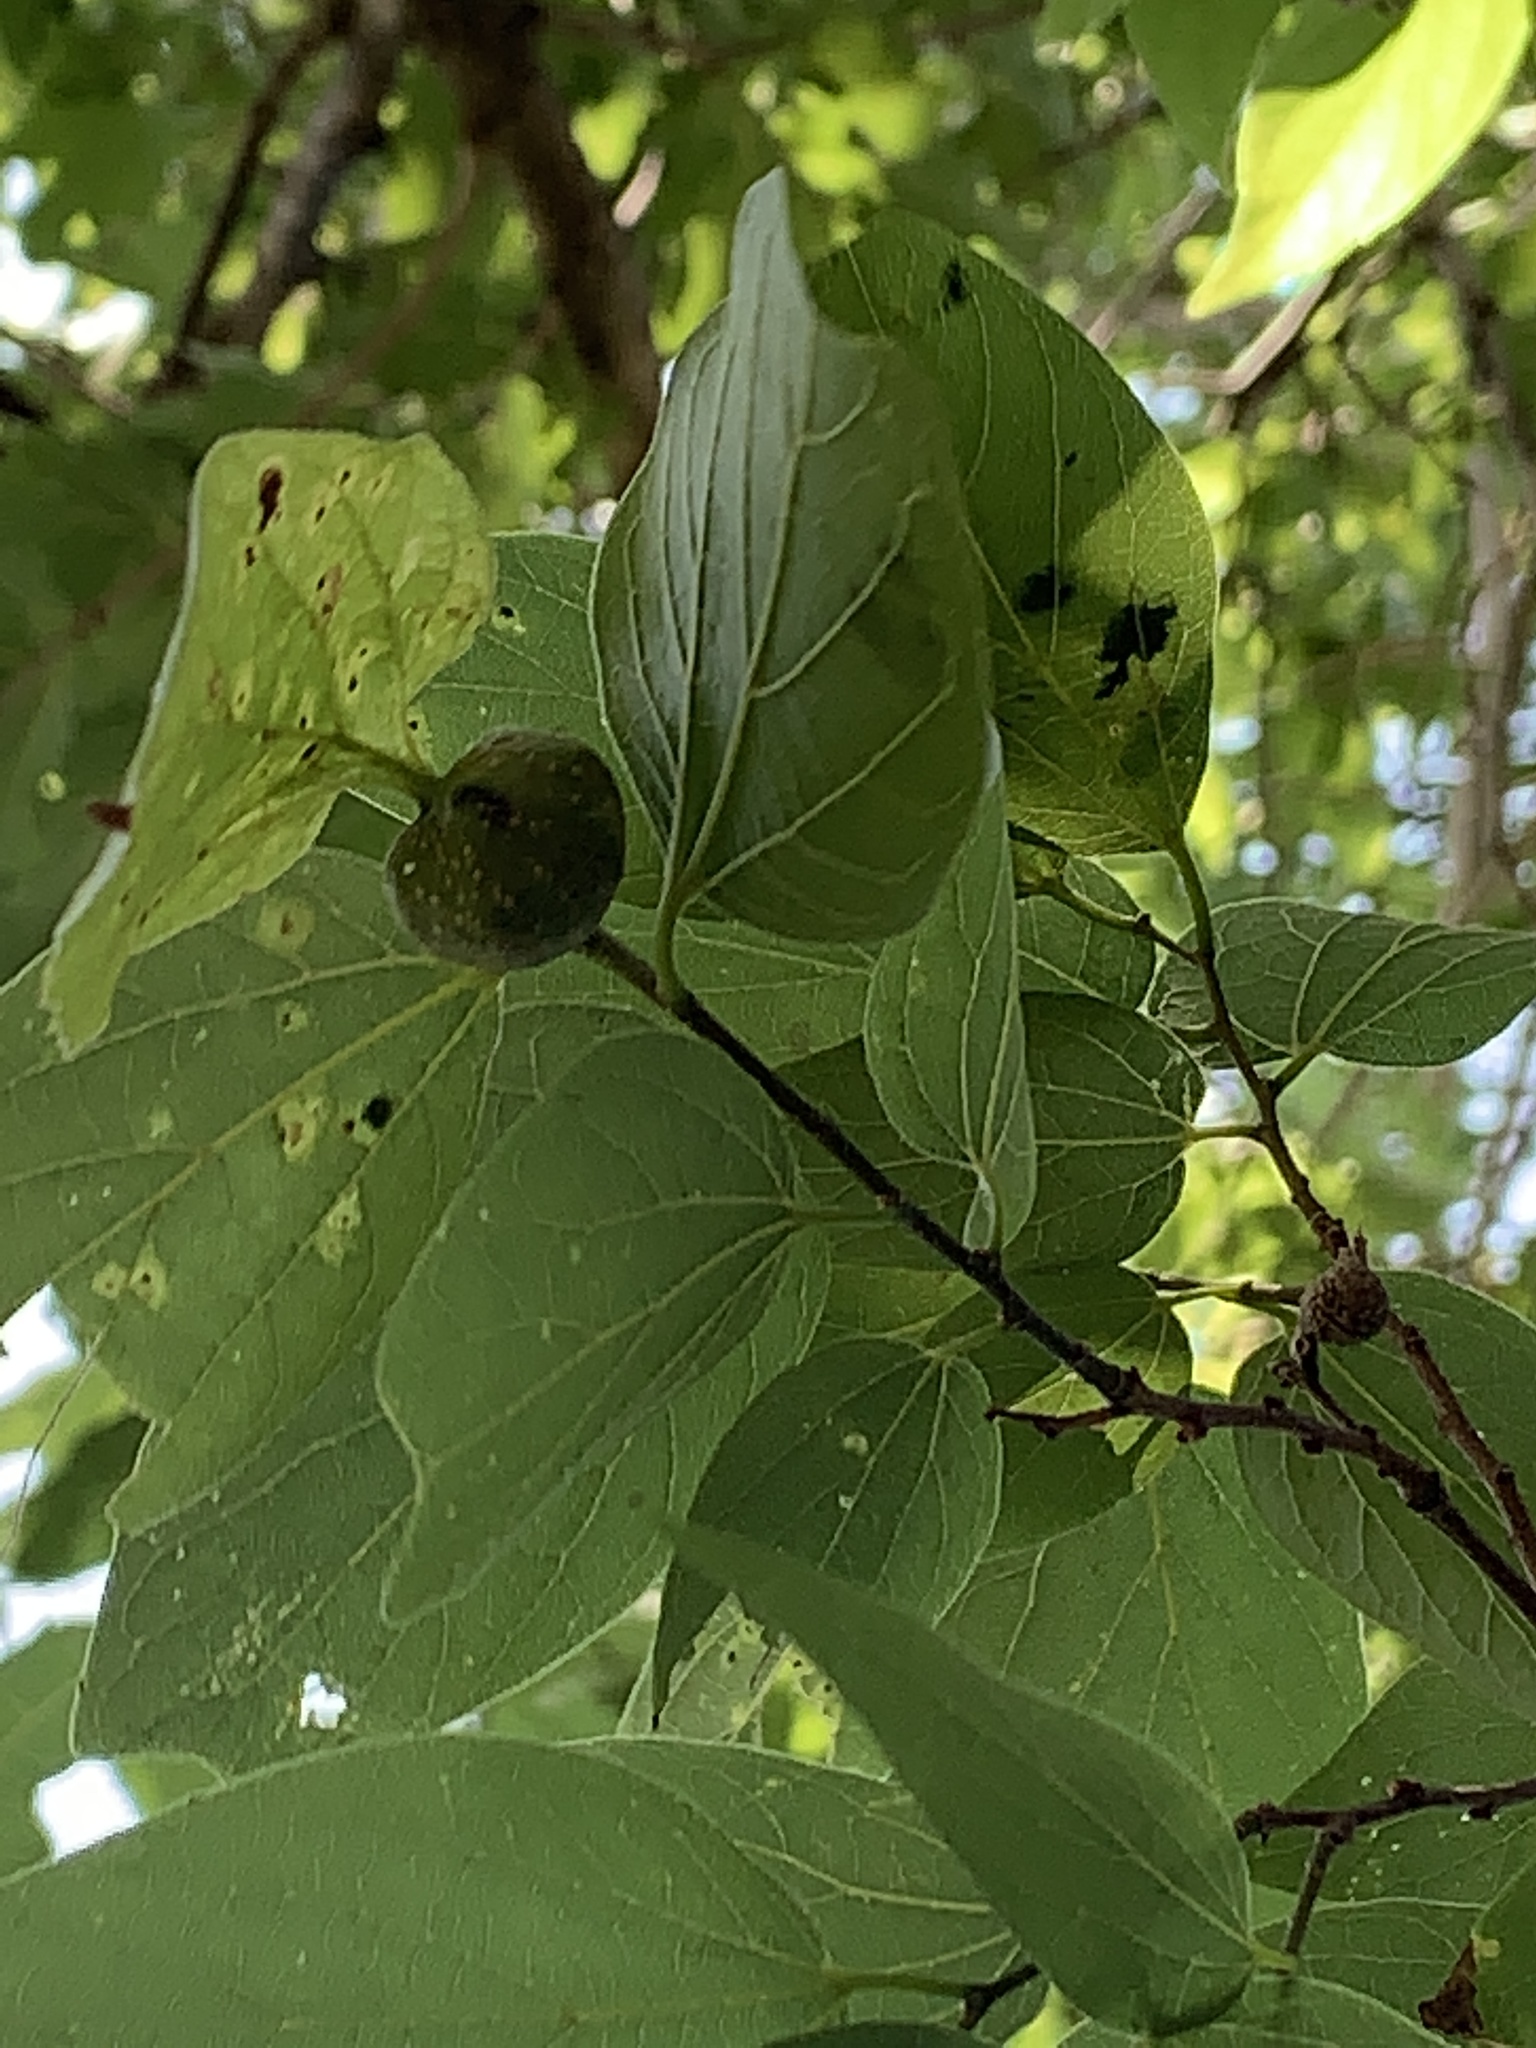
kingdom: Animalia
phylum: Arthropoda
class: Insecta
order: Hemiptera
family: Aphalaridae
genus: Pachypsylla
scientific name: Pachypsylla venusta
